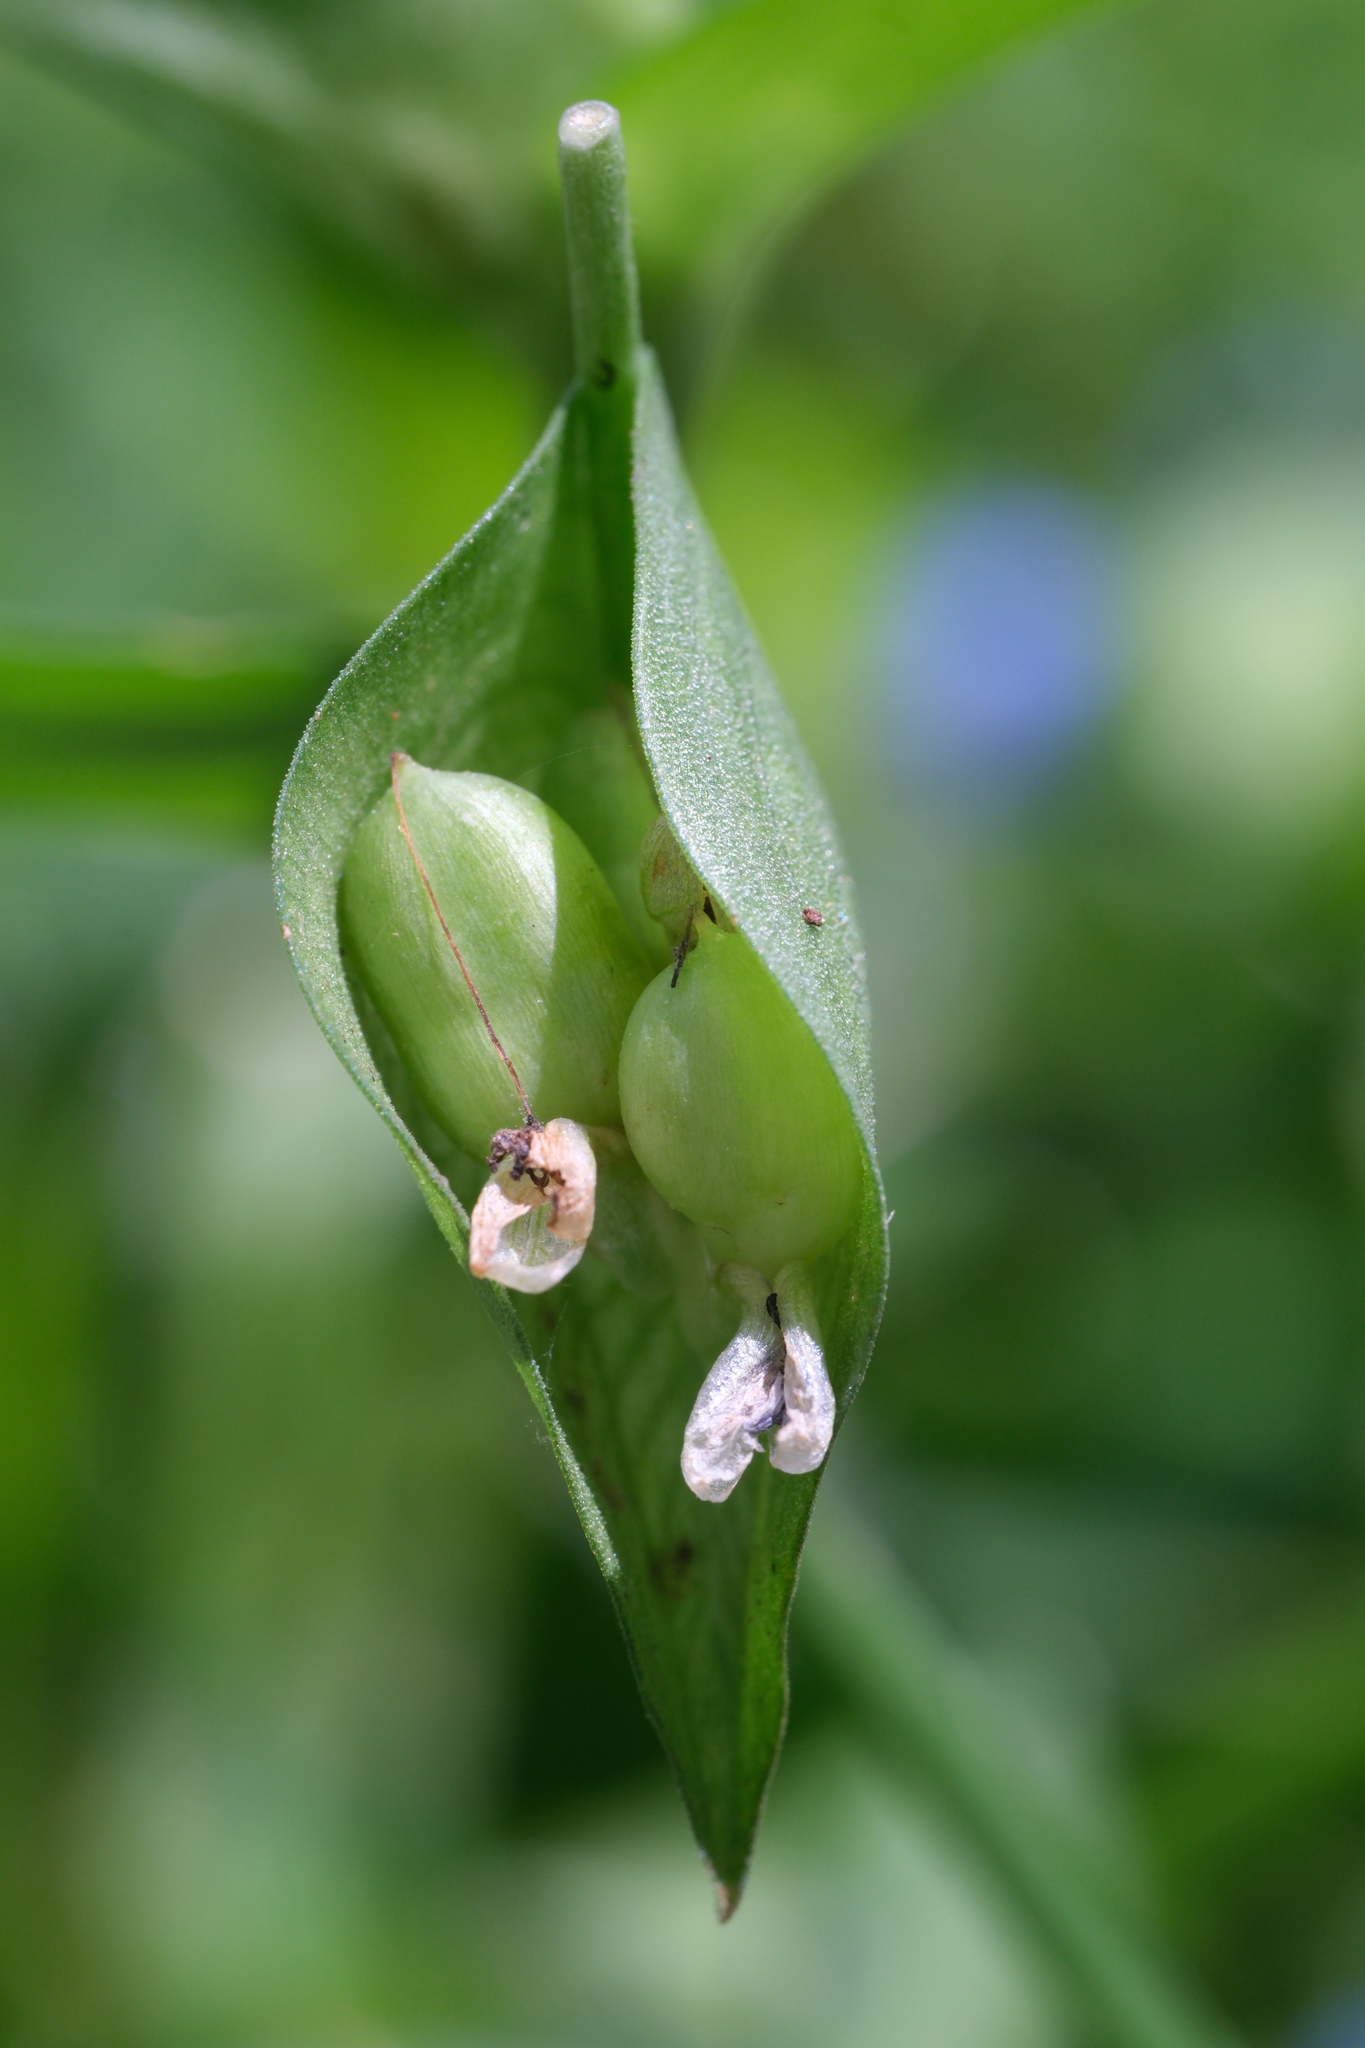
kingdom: Plantae
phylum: Tracheophyta
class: Liliopsida
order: Commelinales
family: Commelinaceae
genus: Commelina
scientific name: Commelina communis
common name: Asiatic dayflower
